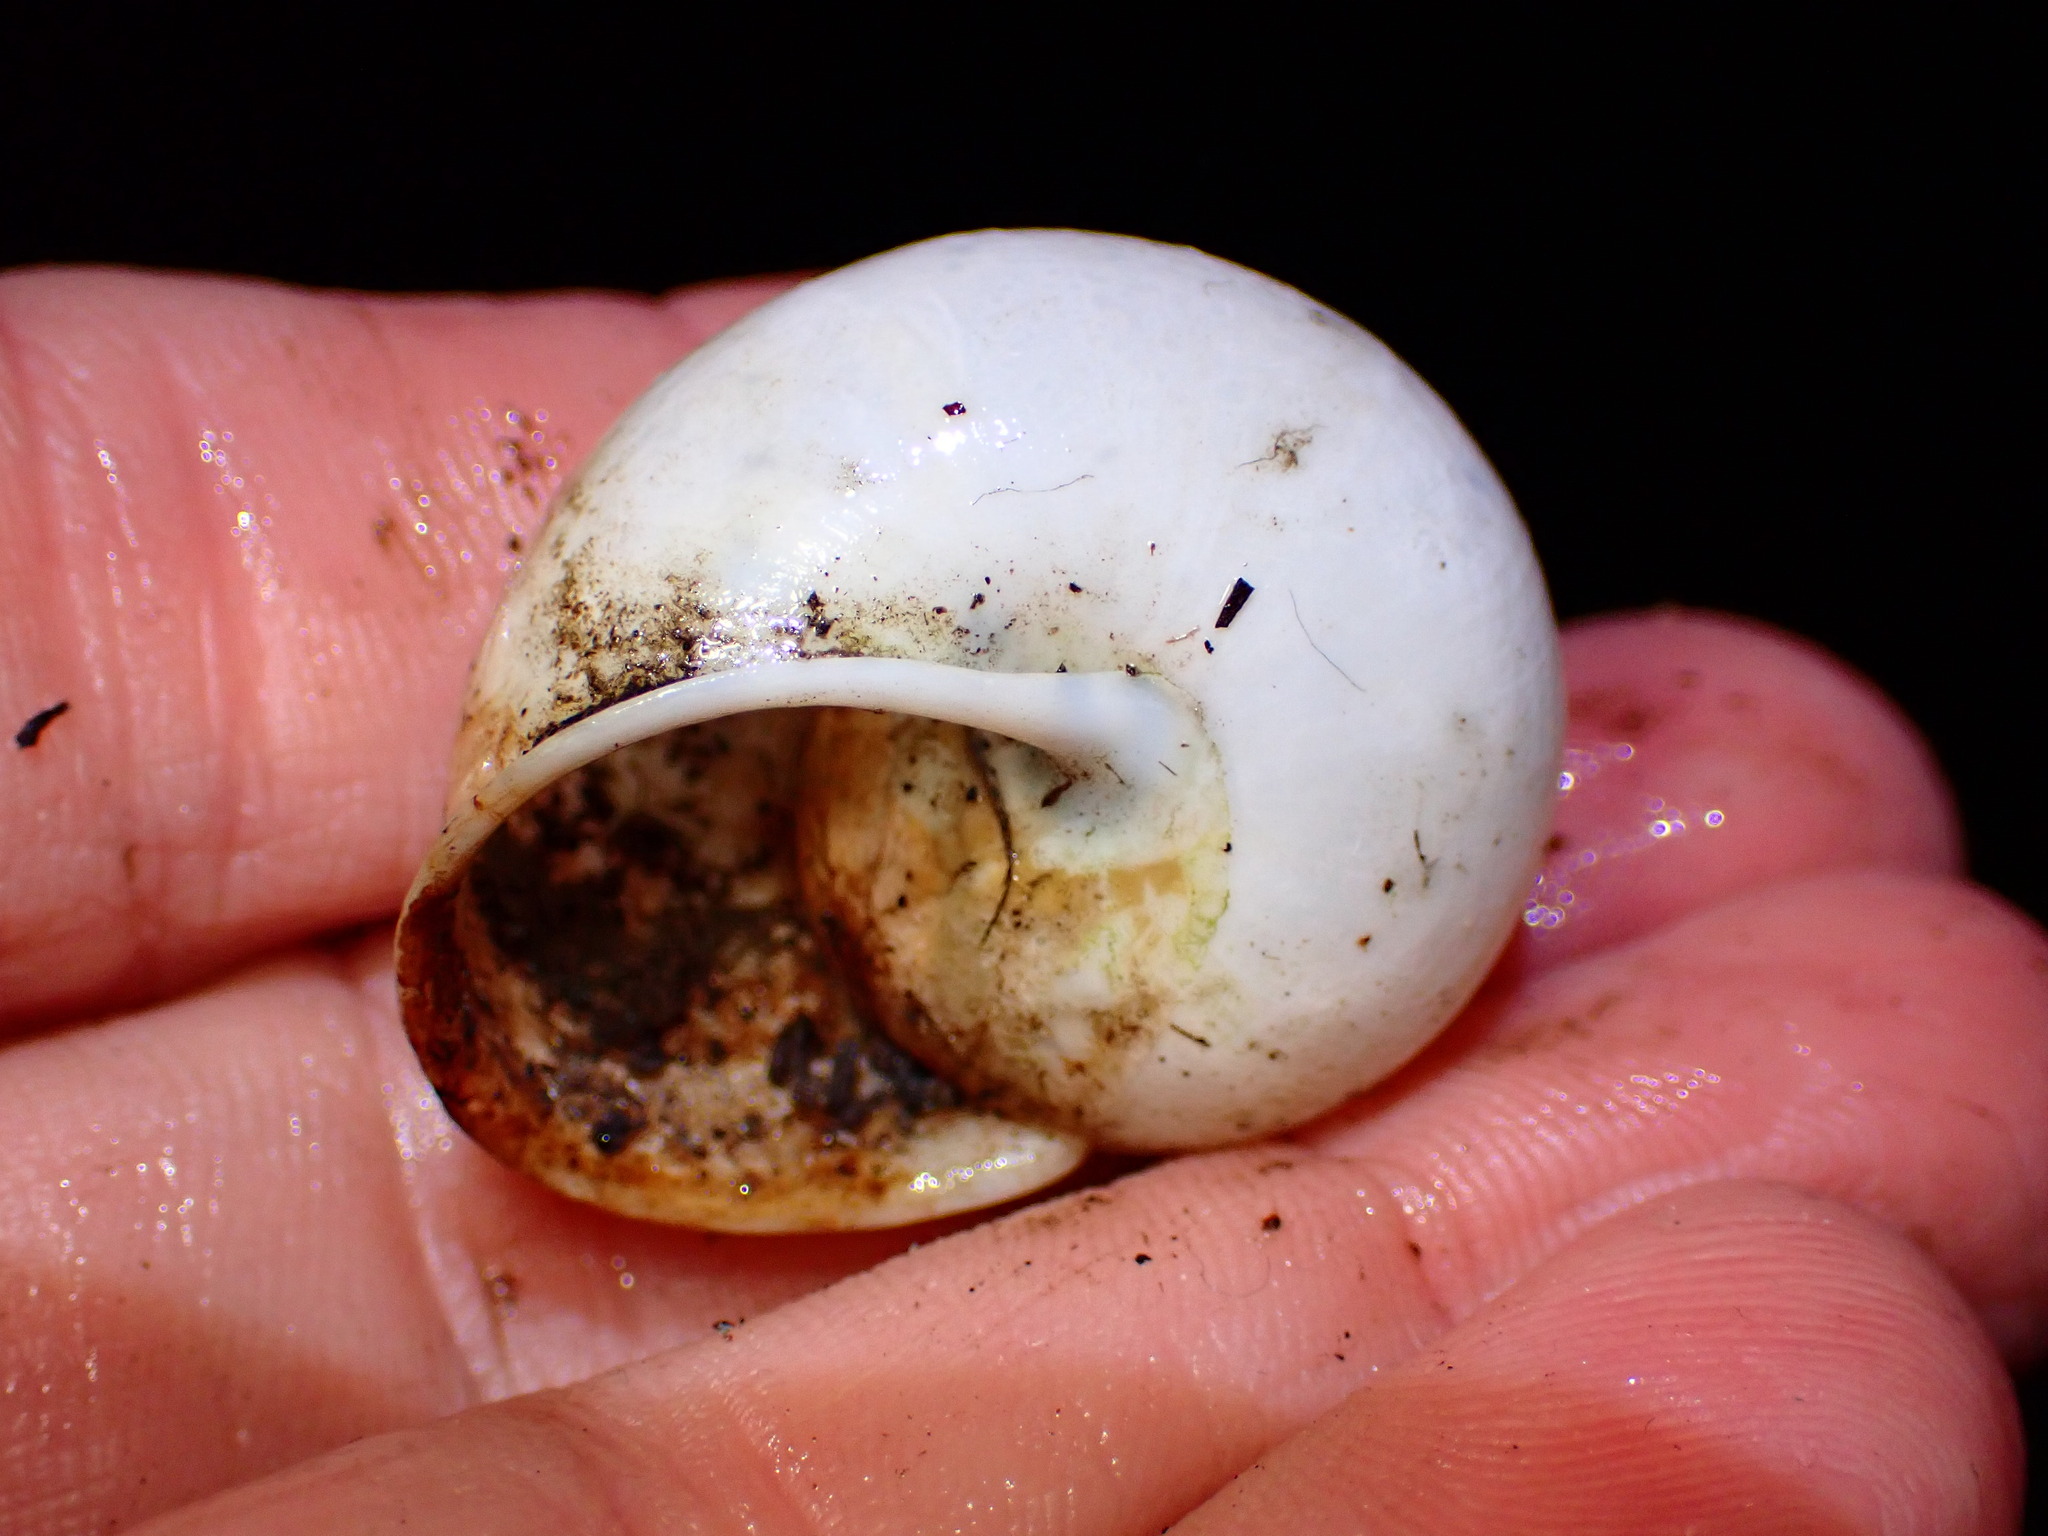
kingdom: Animalia
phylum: Mollusca
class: Gastropoda
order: Stylommatophora
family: Xanthonychidae
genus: Helminthoglypta
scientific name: Helminthoglypta tudiculata
